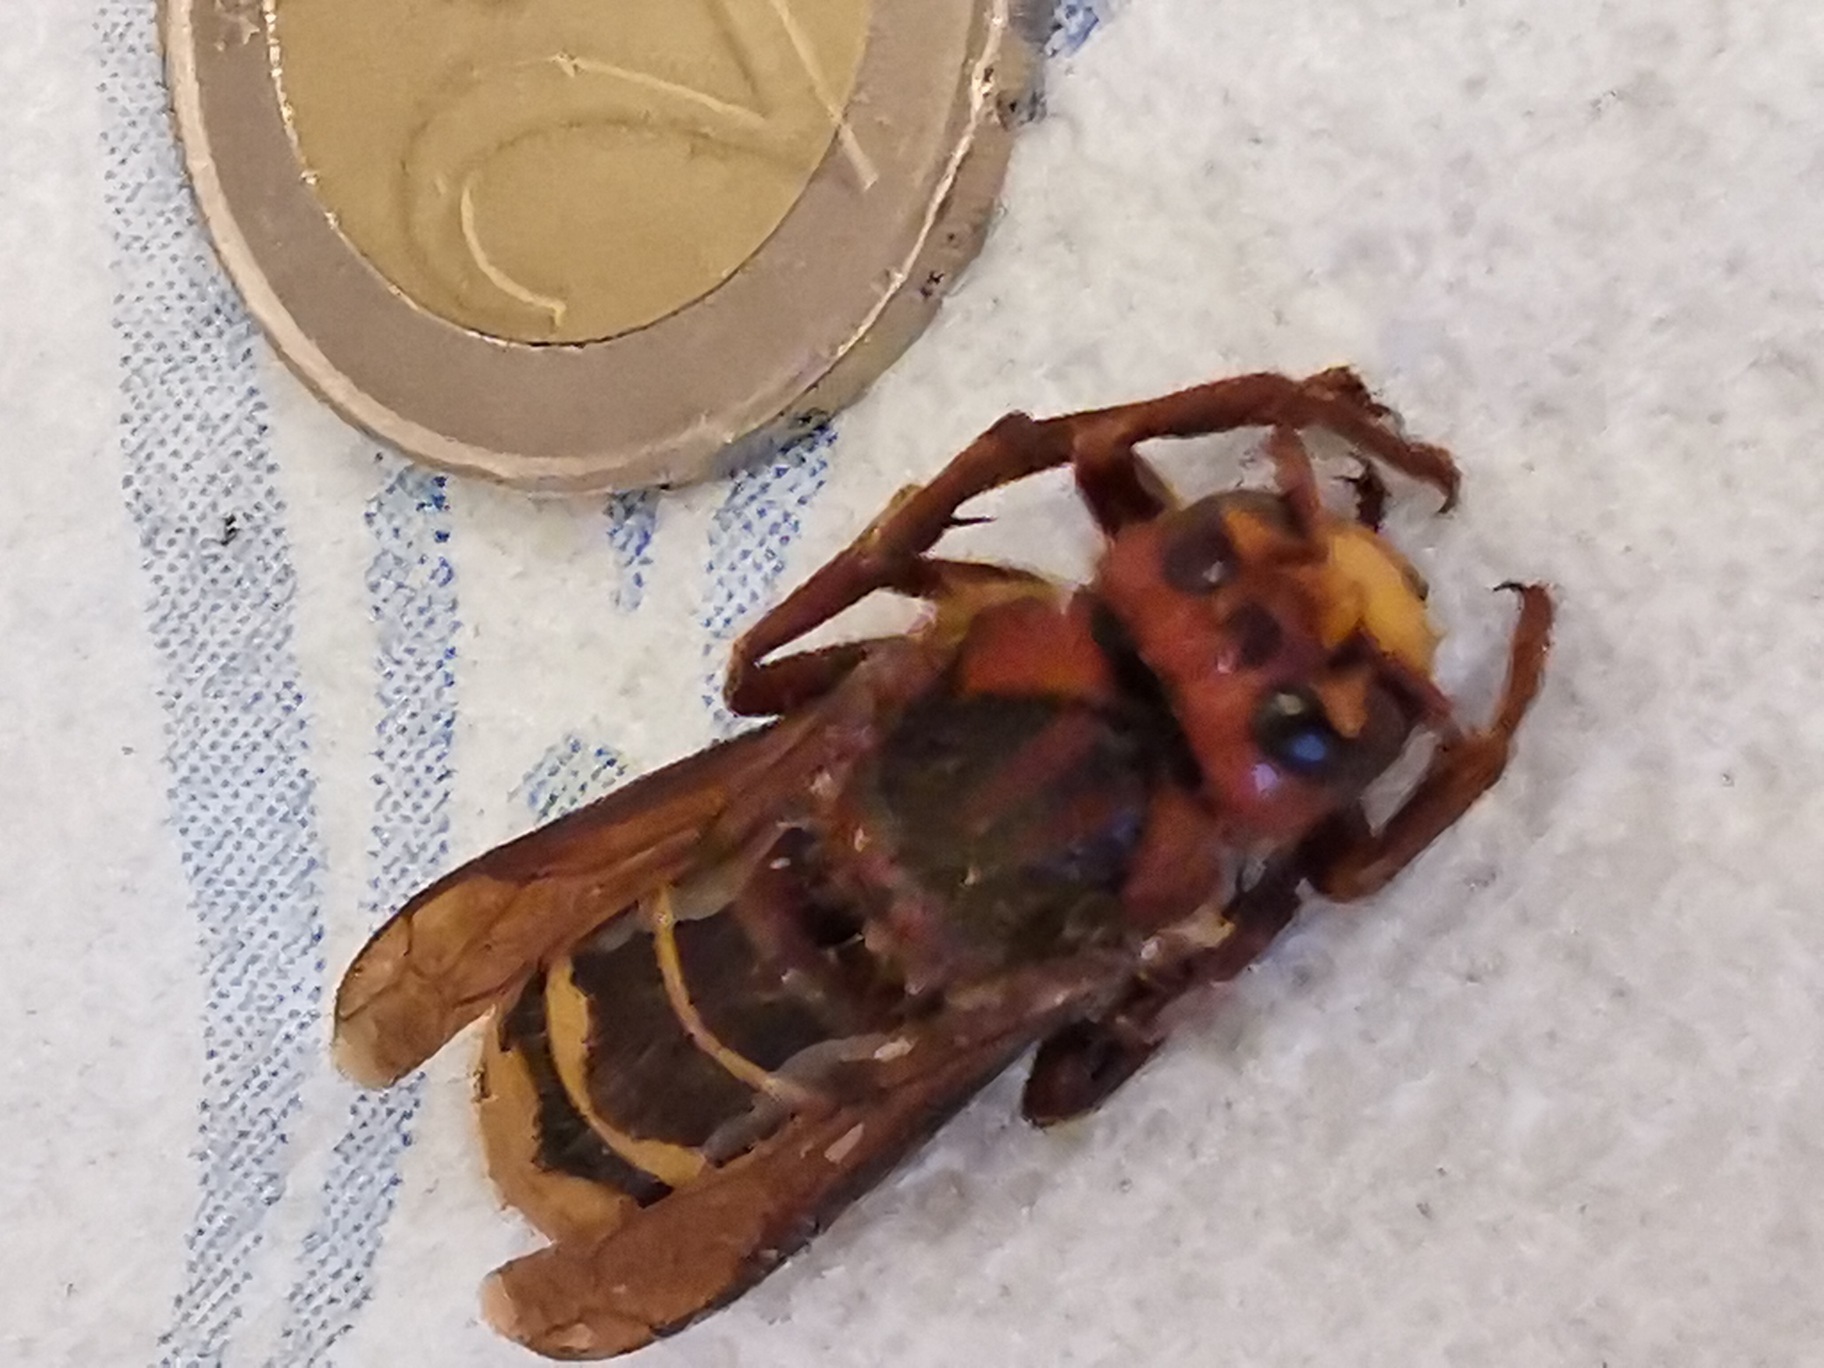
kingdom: Animalia
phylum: Arthropoda
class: Insecta
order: Hymenoptera
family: Vespidae
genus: Vespa
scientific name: Vespa crabro
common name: Hornet
